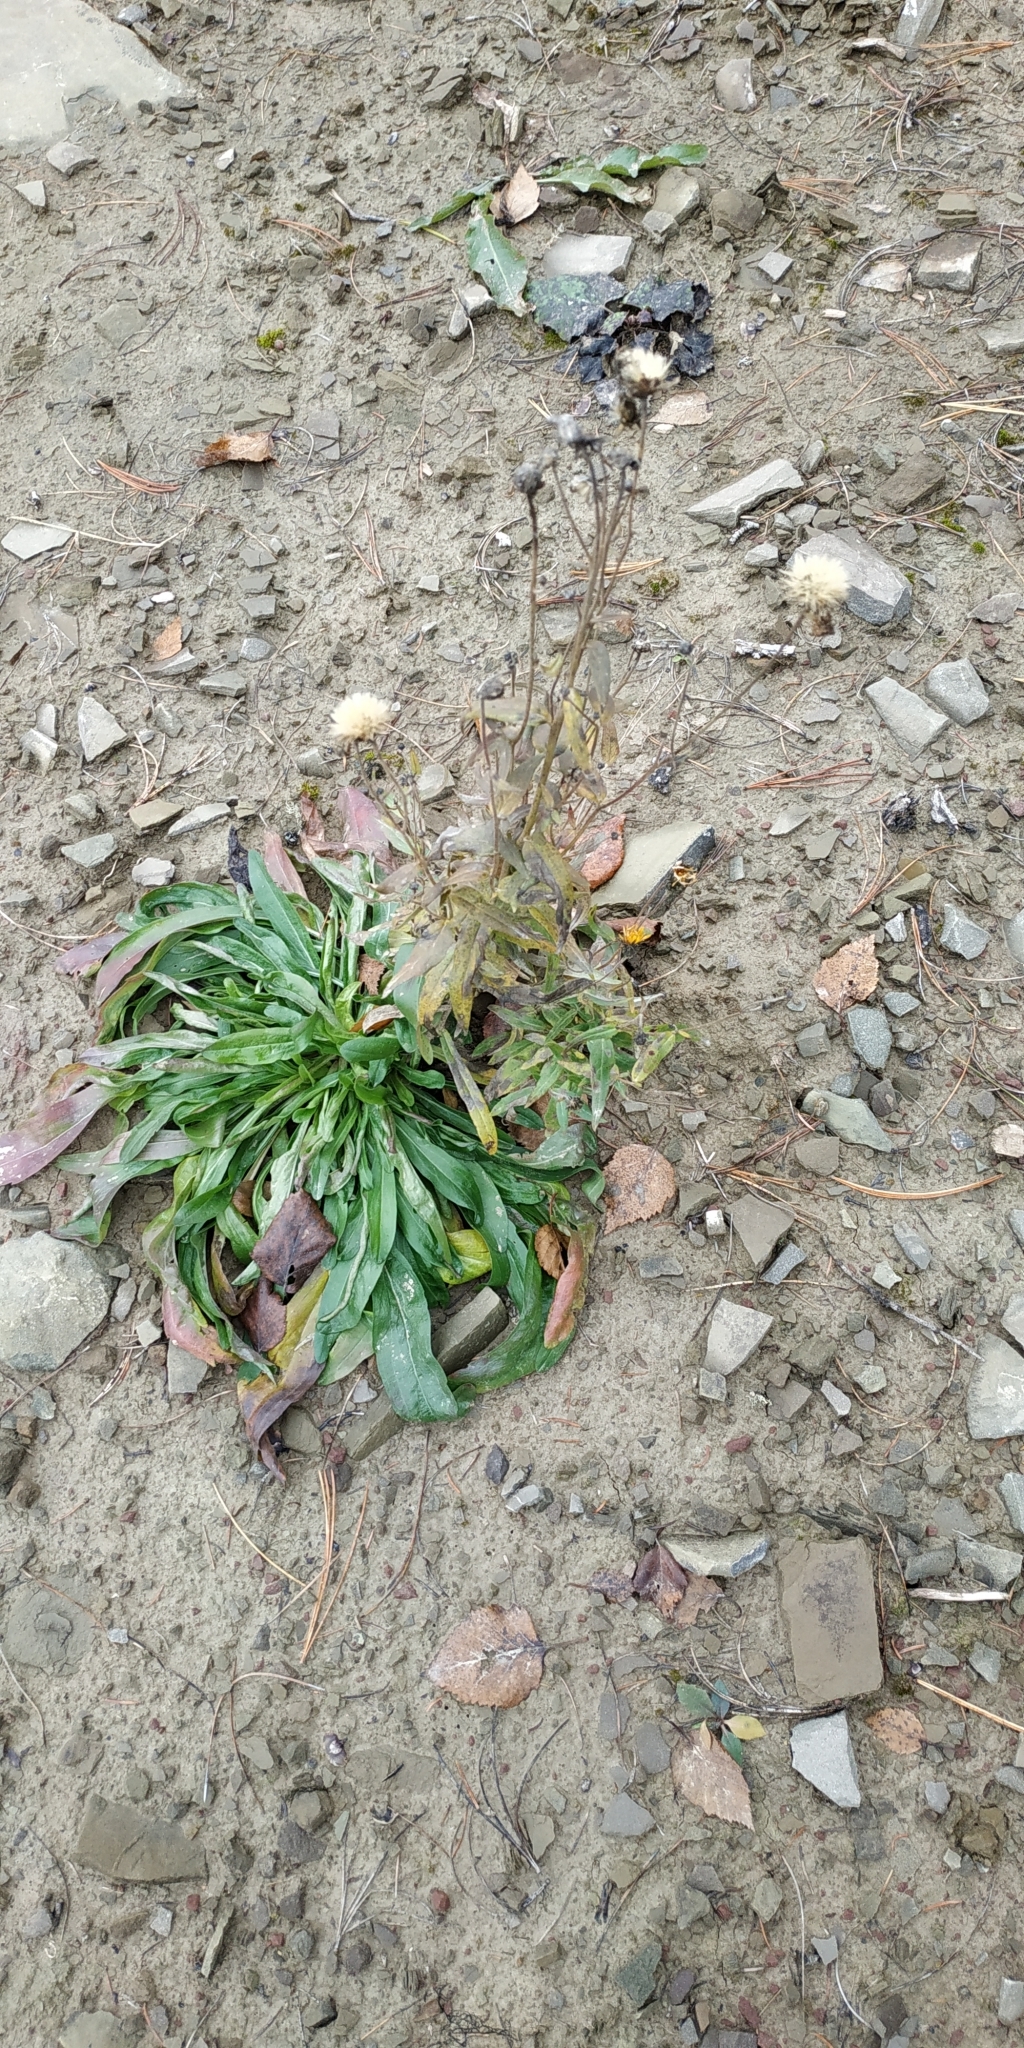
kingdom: Plantae
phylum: Tracheophyta
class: Magnoliopsida
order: Asterales
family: Asteraceae
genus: Hieracium
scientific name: Hieracium umbellatum
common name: Northern hawkweed
